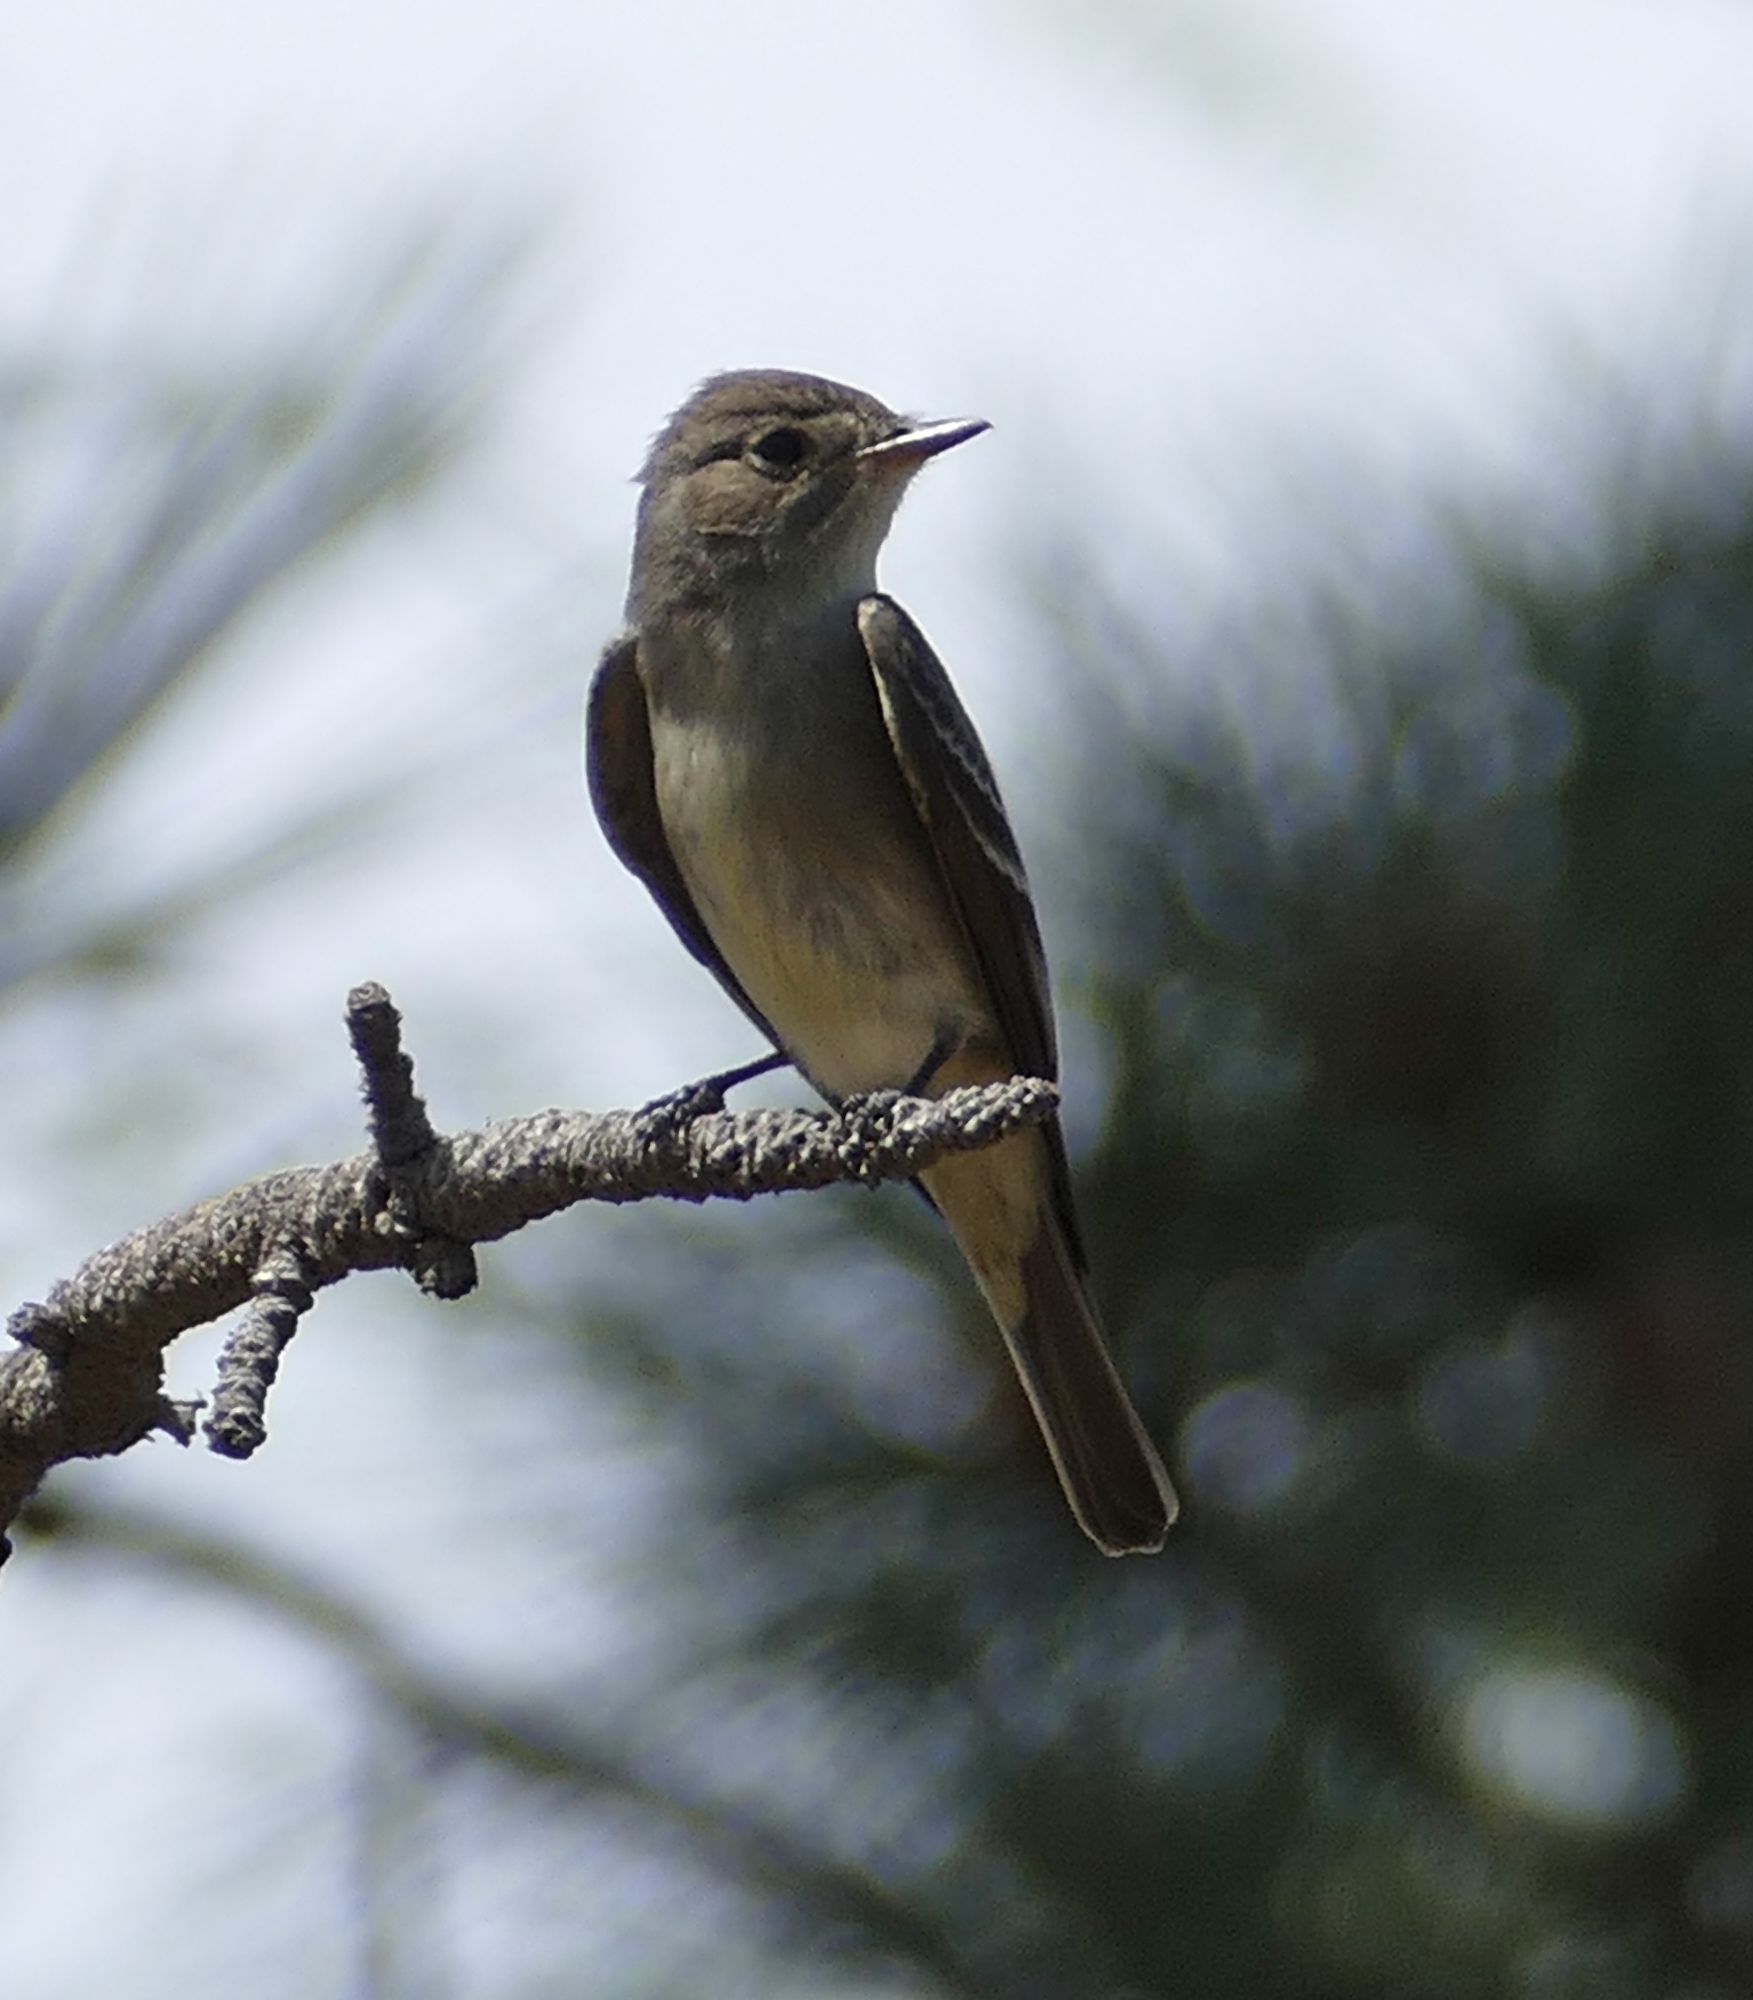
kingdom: Animalia
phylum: Chordata
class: Aves
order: Passeriformes
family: Tyrannidae
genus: Contopus
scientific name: Contopus sordidulus
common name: Western wood-pewee
